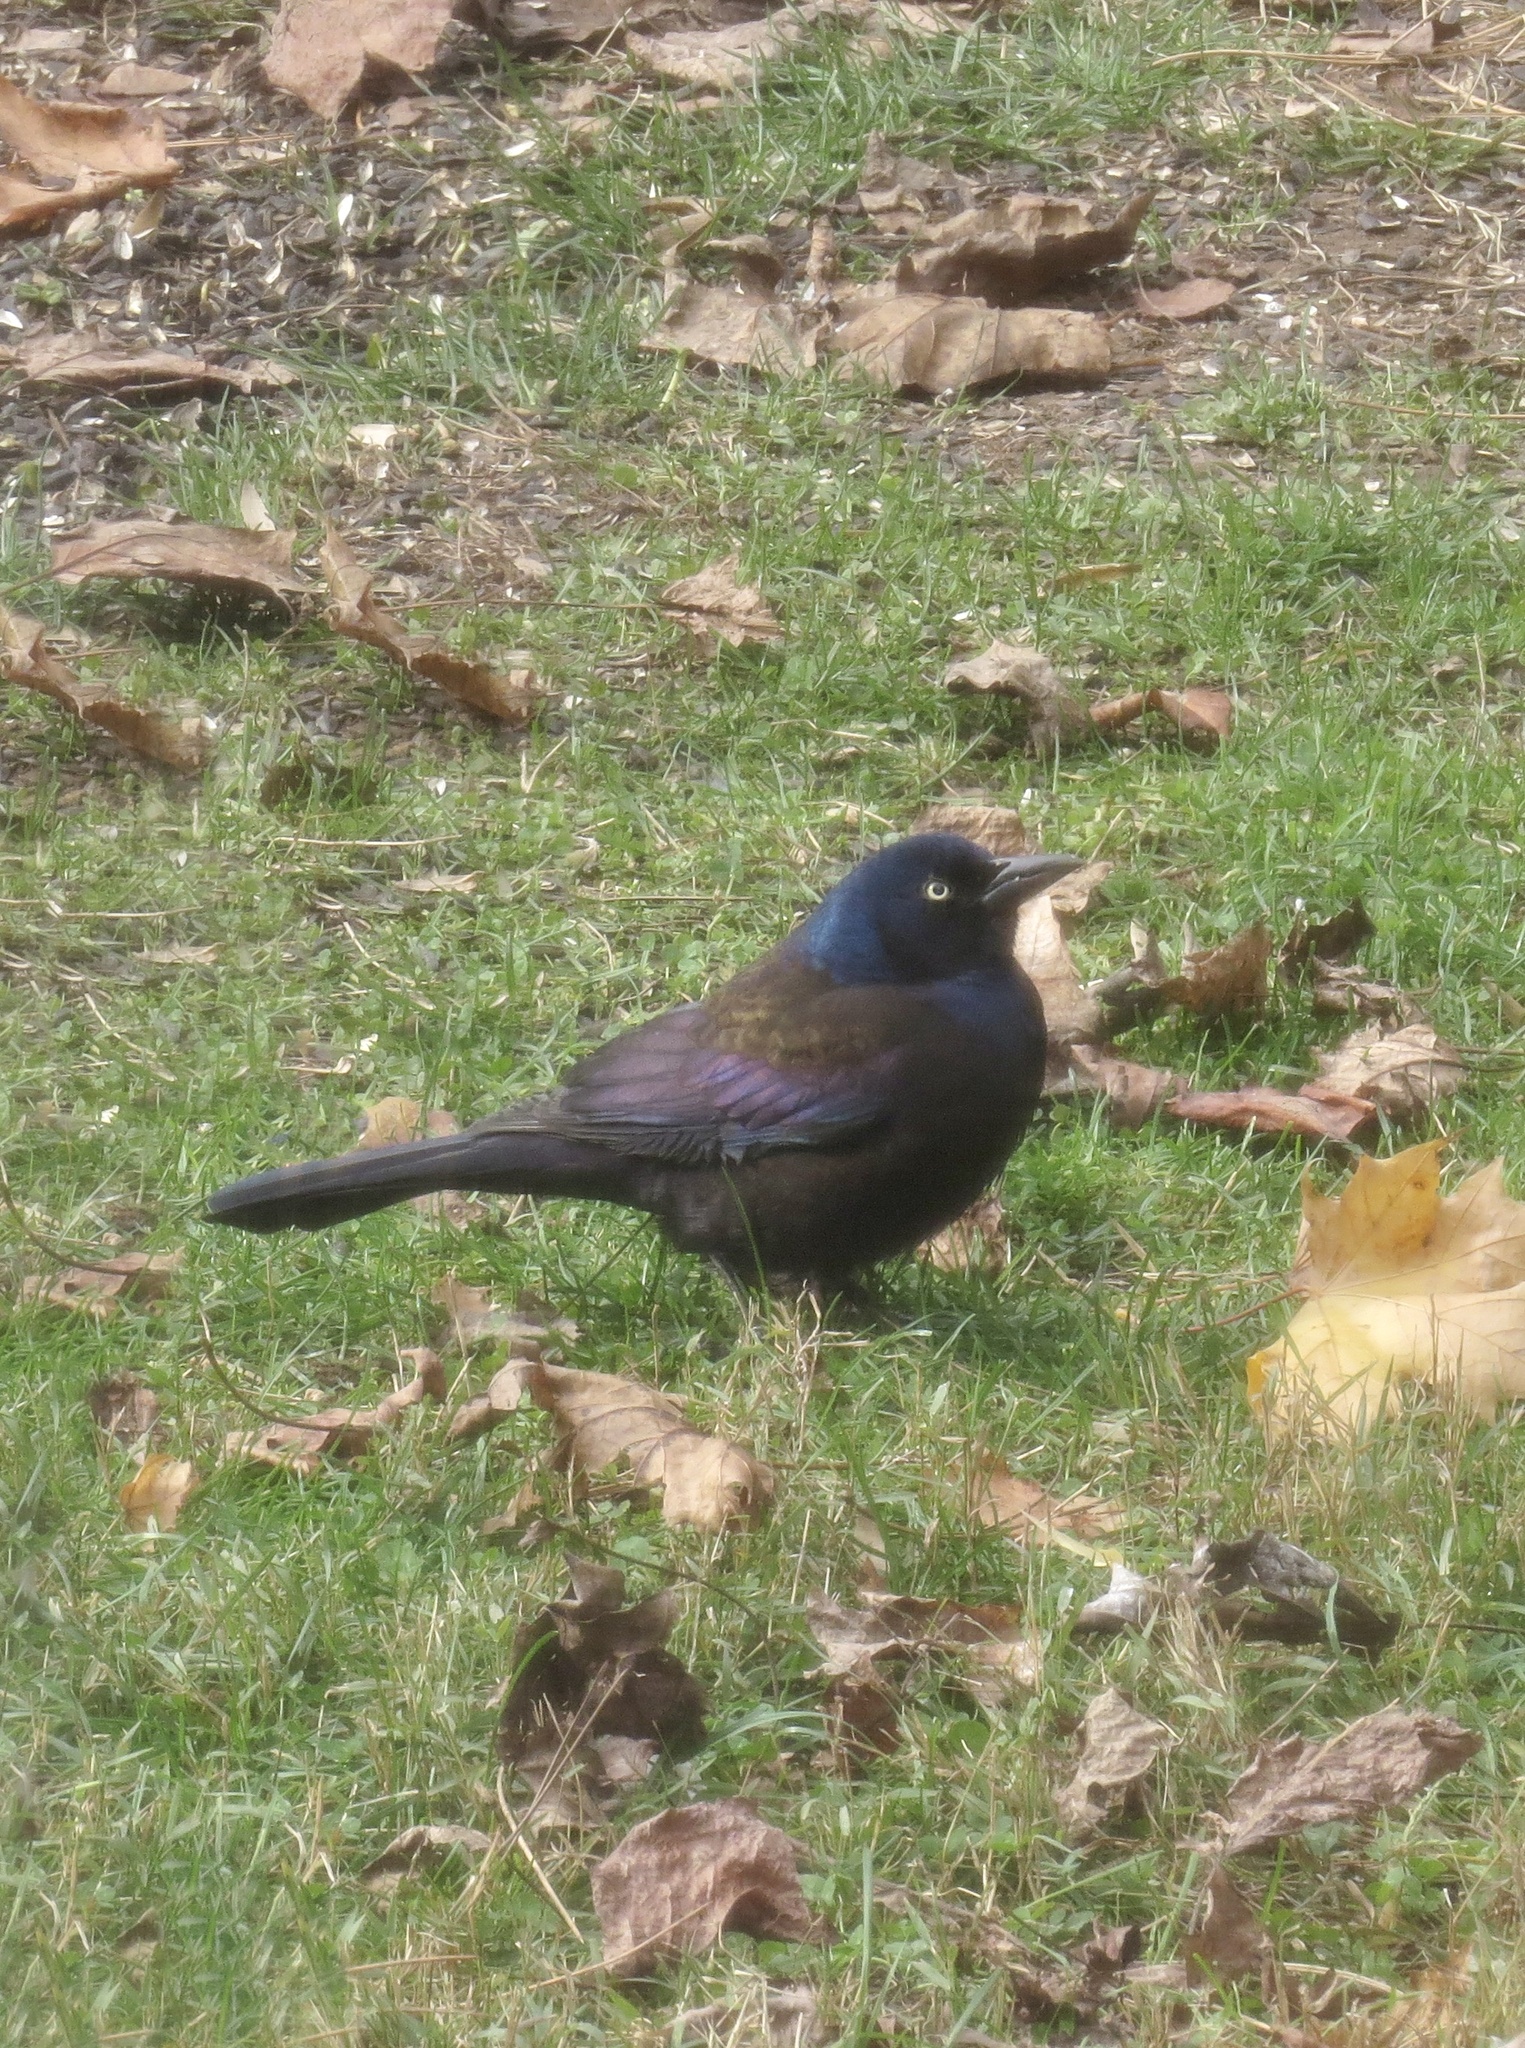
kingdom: Animalia
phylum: Chordata
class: Aves
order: Passeriformes
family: Icteridae
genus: Quiscalus
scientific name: Quiscalus quiscula
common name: Common grackle
